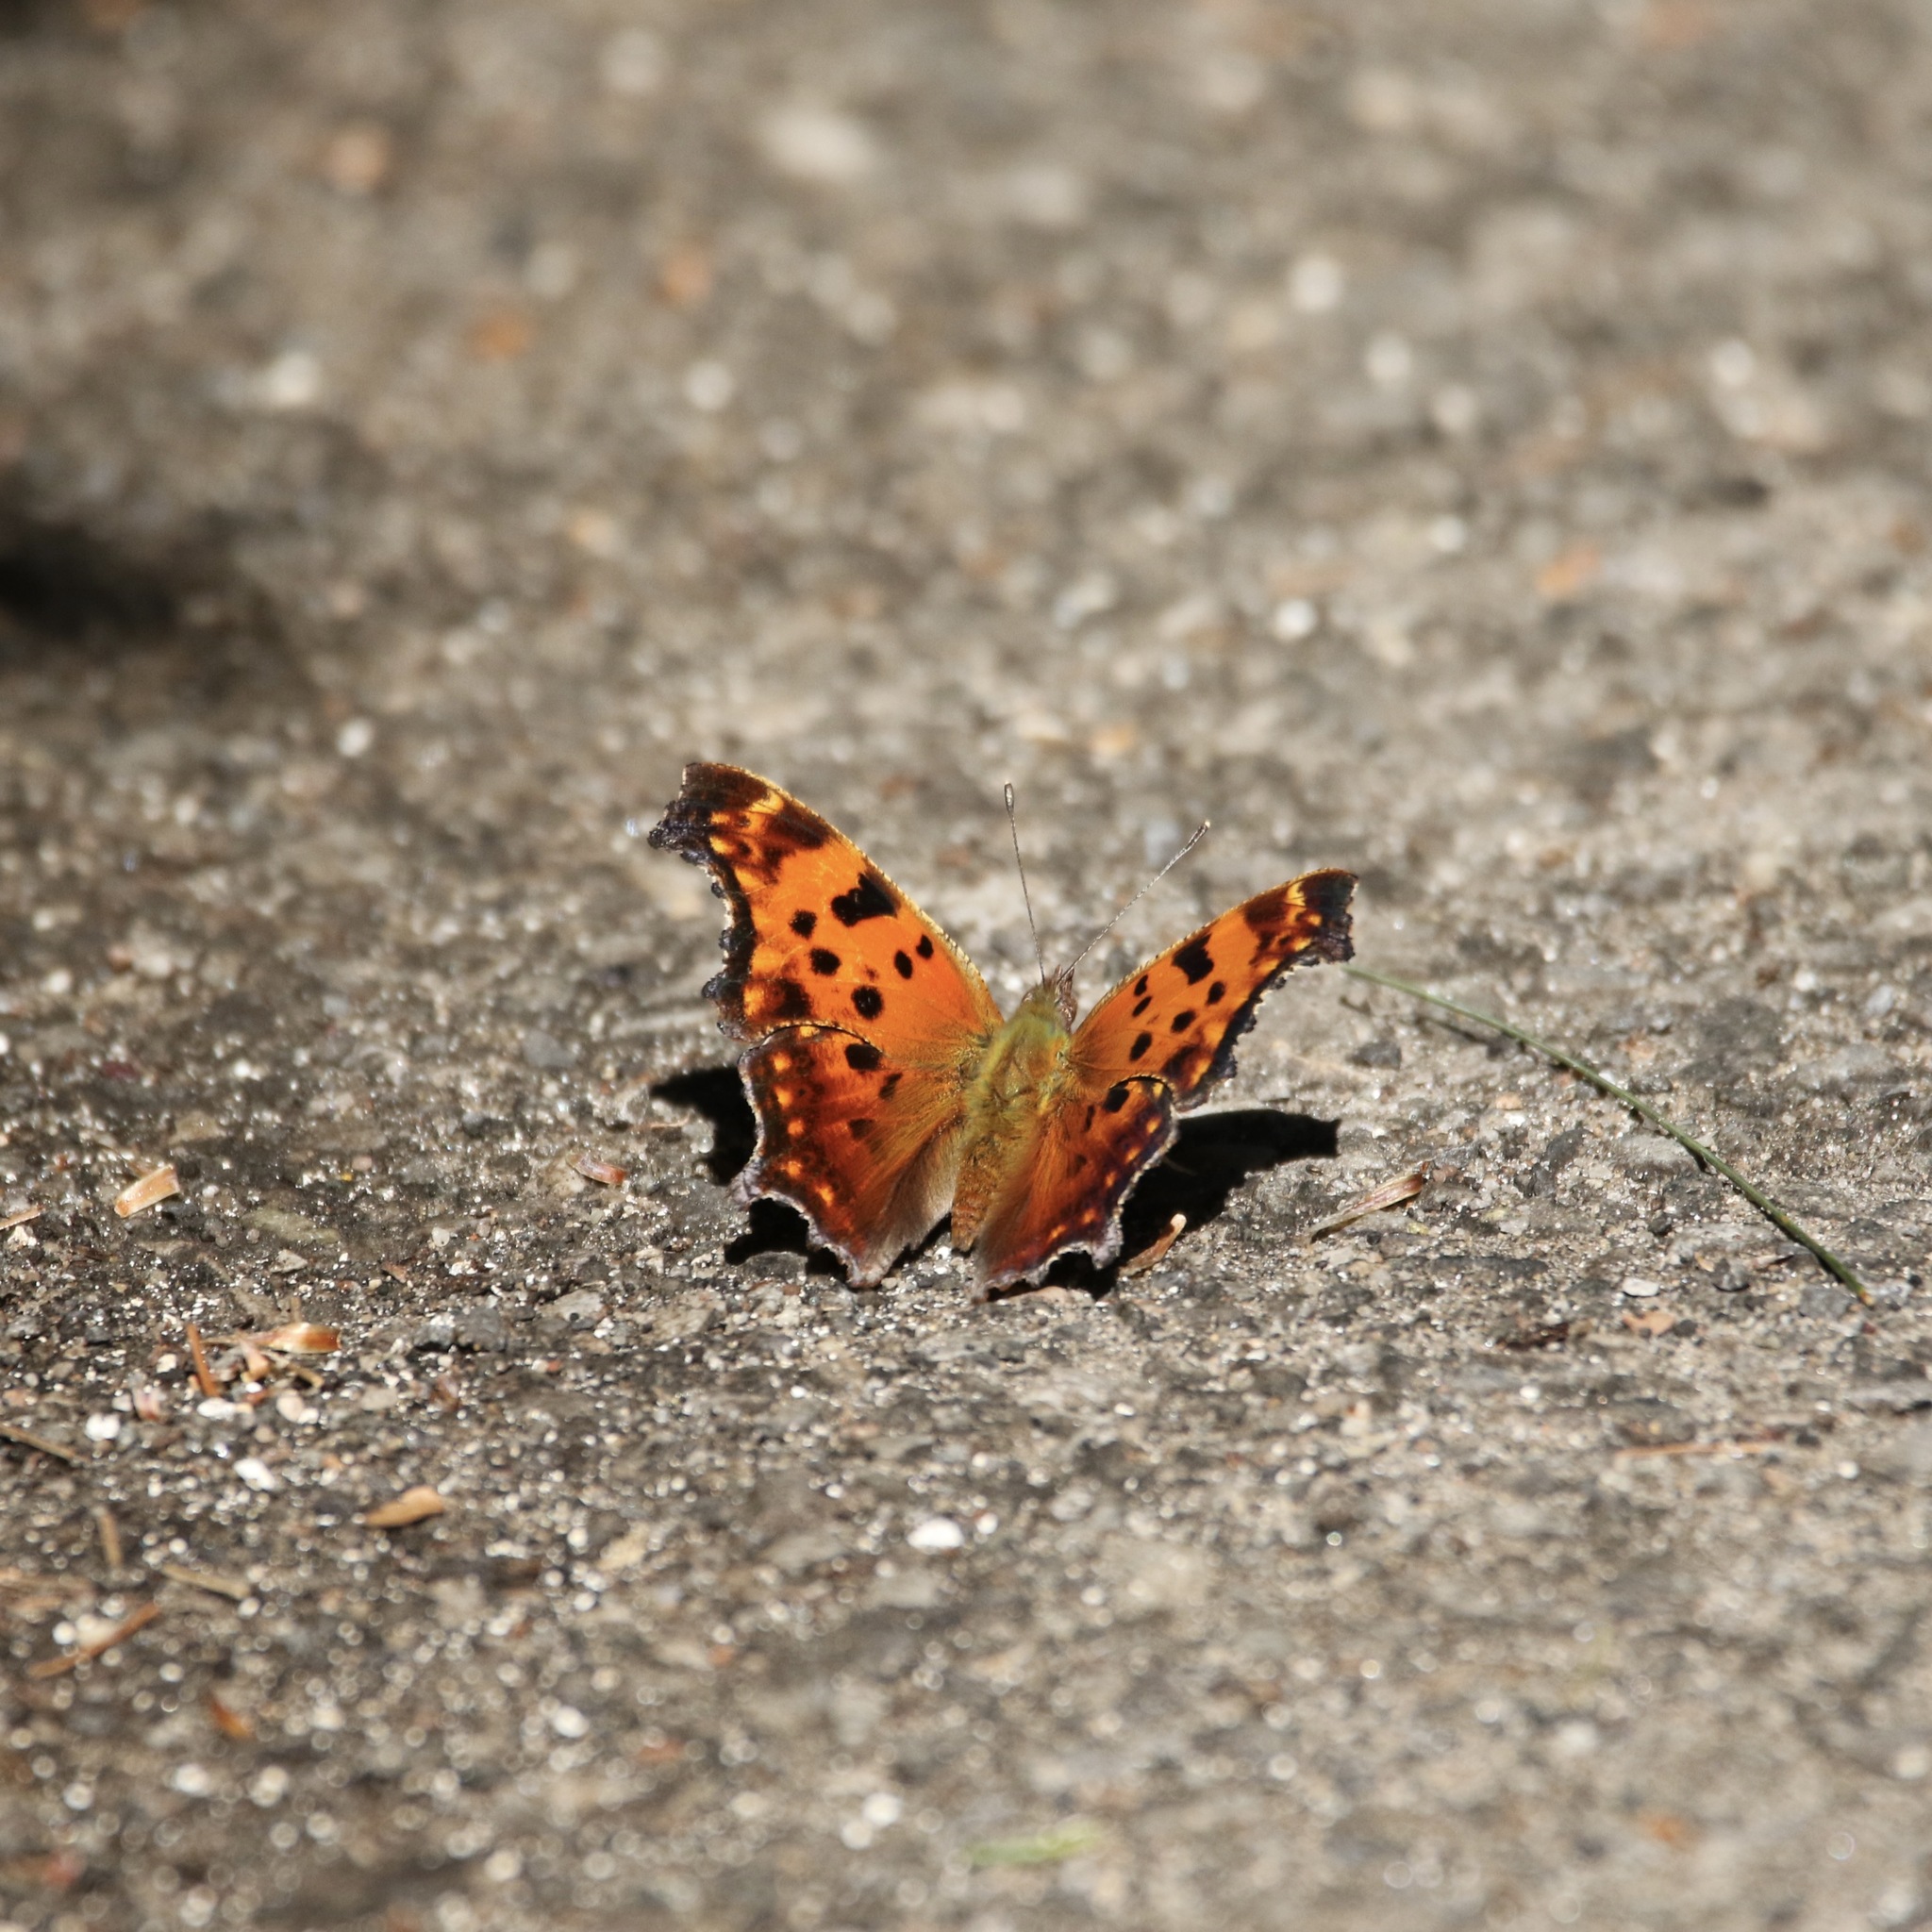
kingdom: Animalia
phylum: Arthropoda
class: Insecta
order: Lepidoptera
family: Nymphalidae
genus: Polygonia
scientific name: Polygonia comma
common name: Eastern comma
